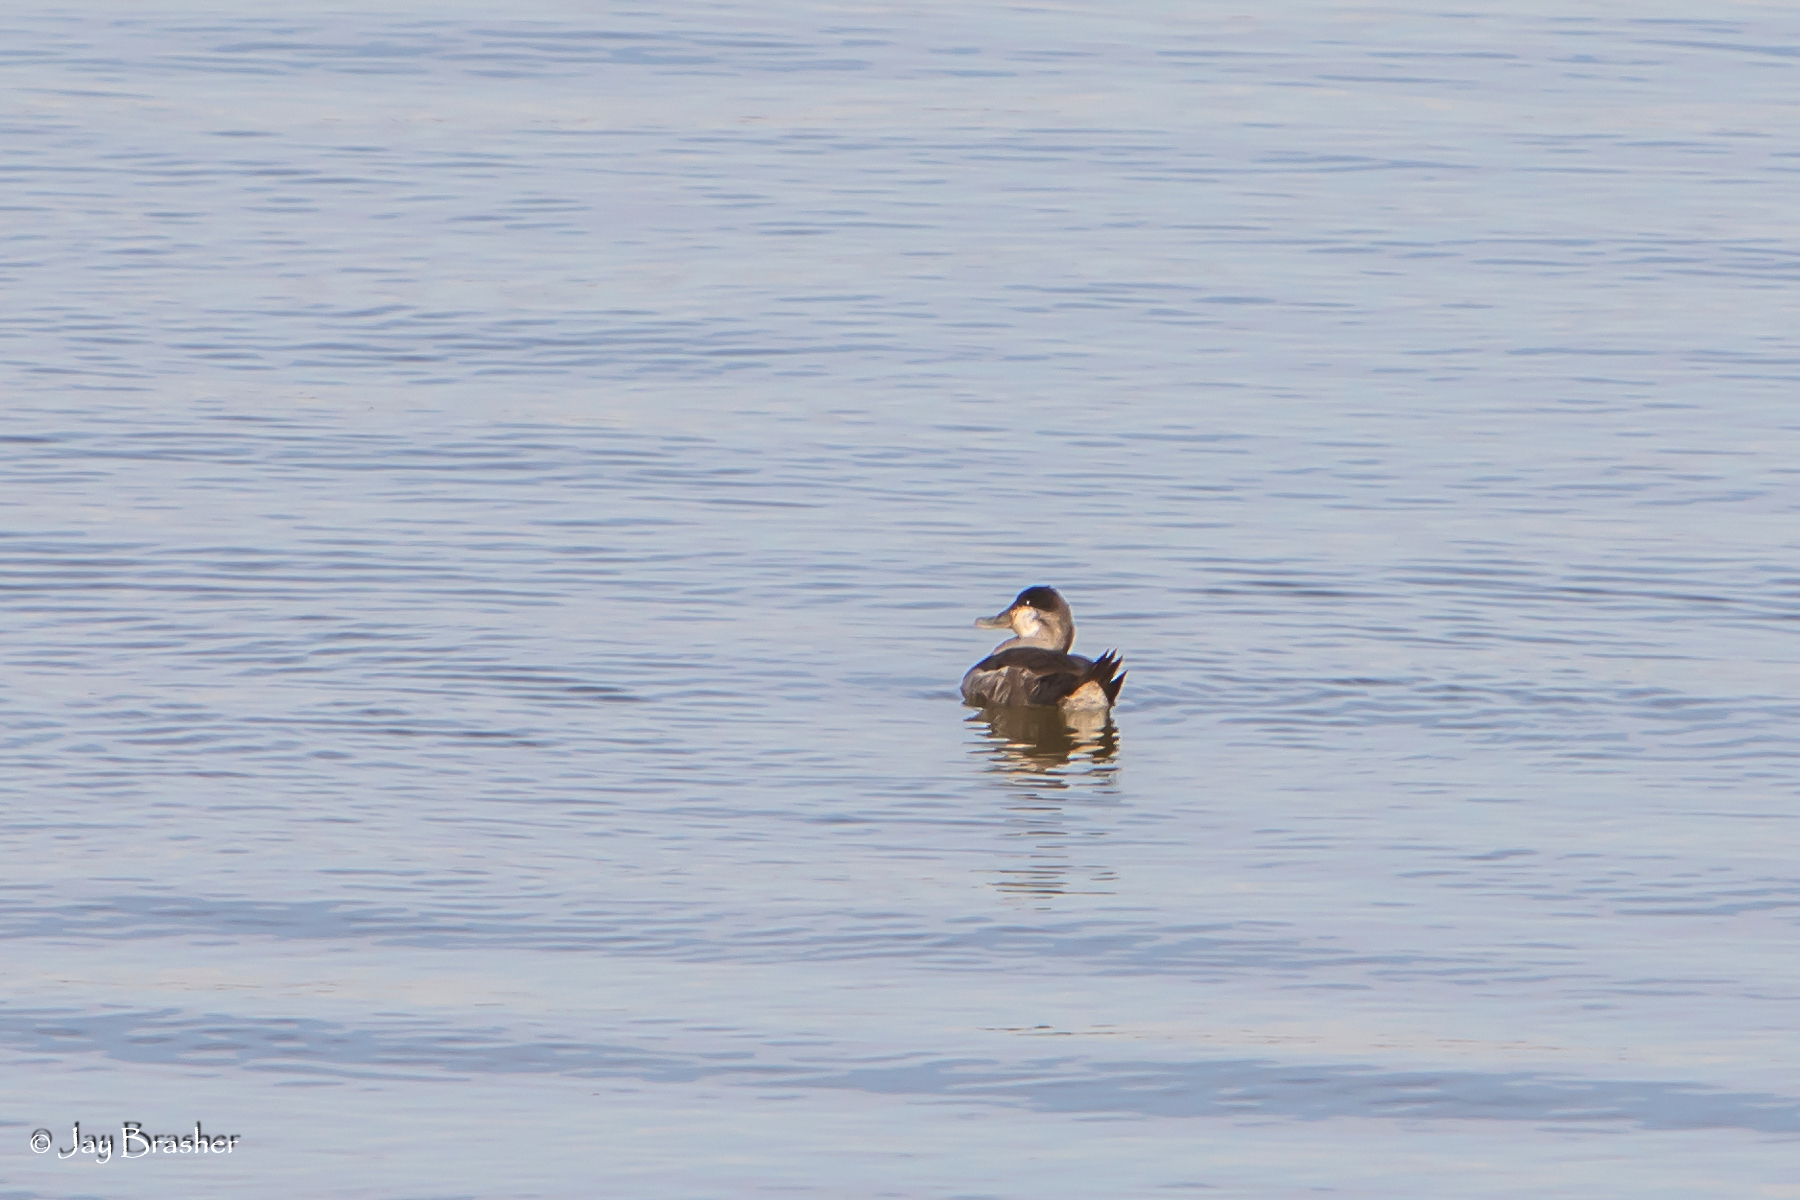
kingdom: Animalia
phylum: Chordata
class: Aves
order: Anseriformes
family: Anatidae
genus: Oxyura
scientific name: Oxyura jamaicensis
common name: Ruddy duck
